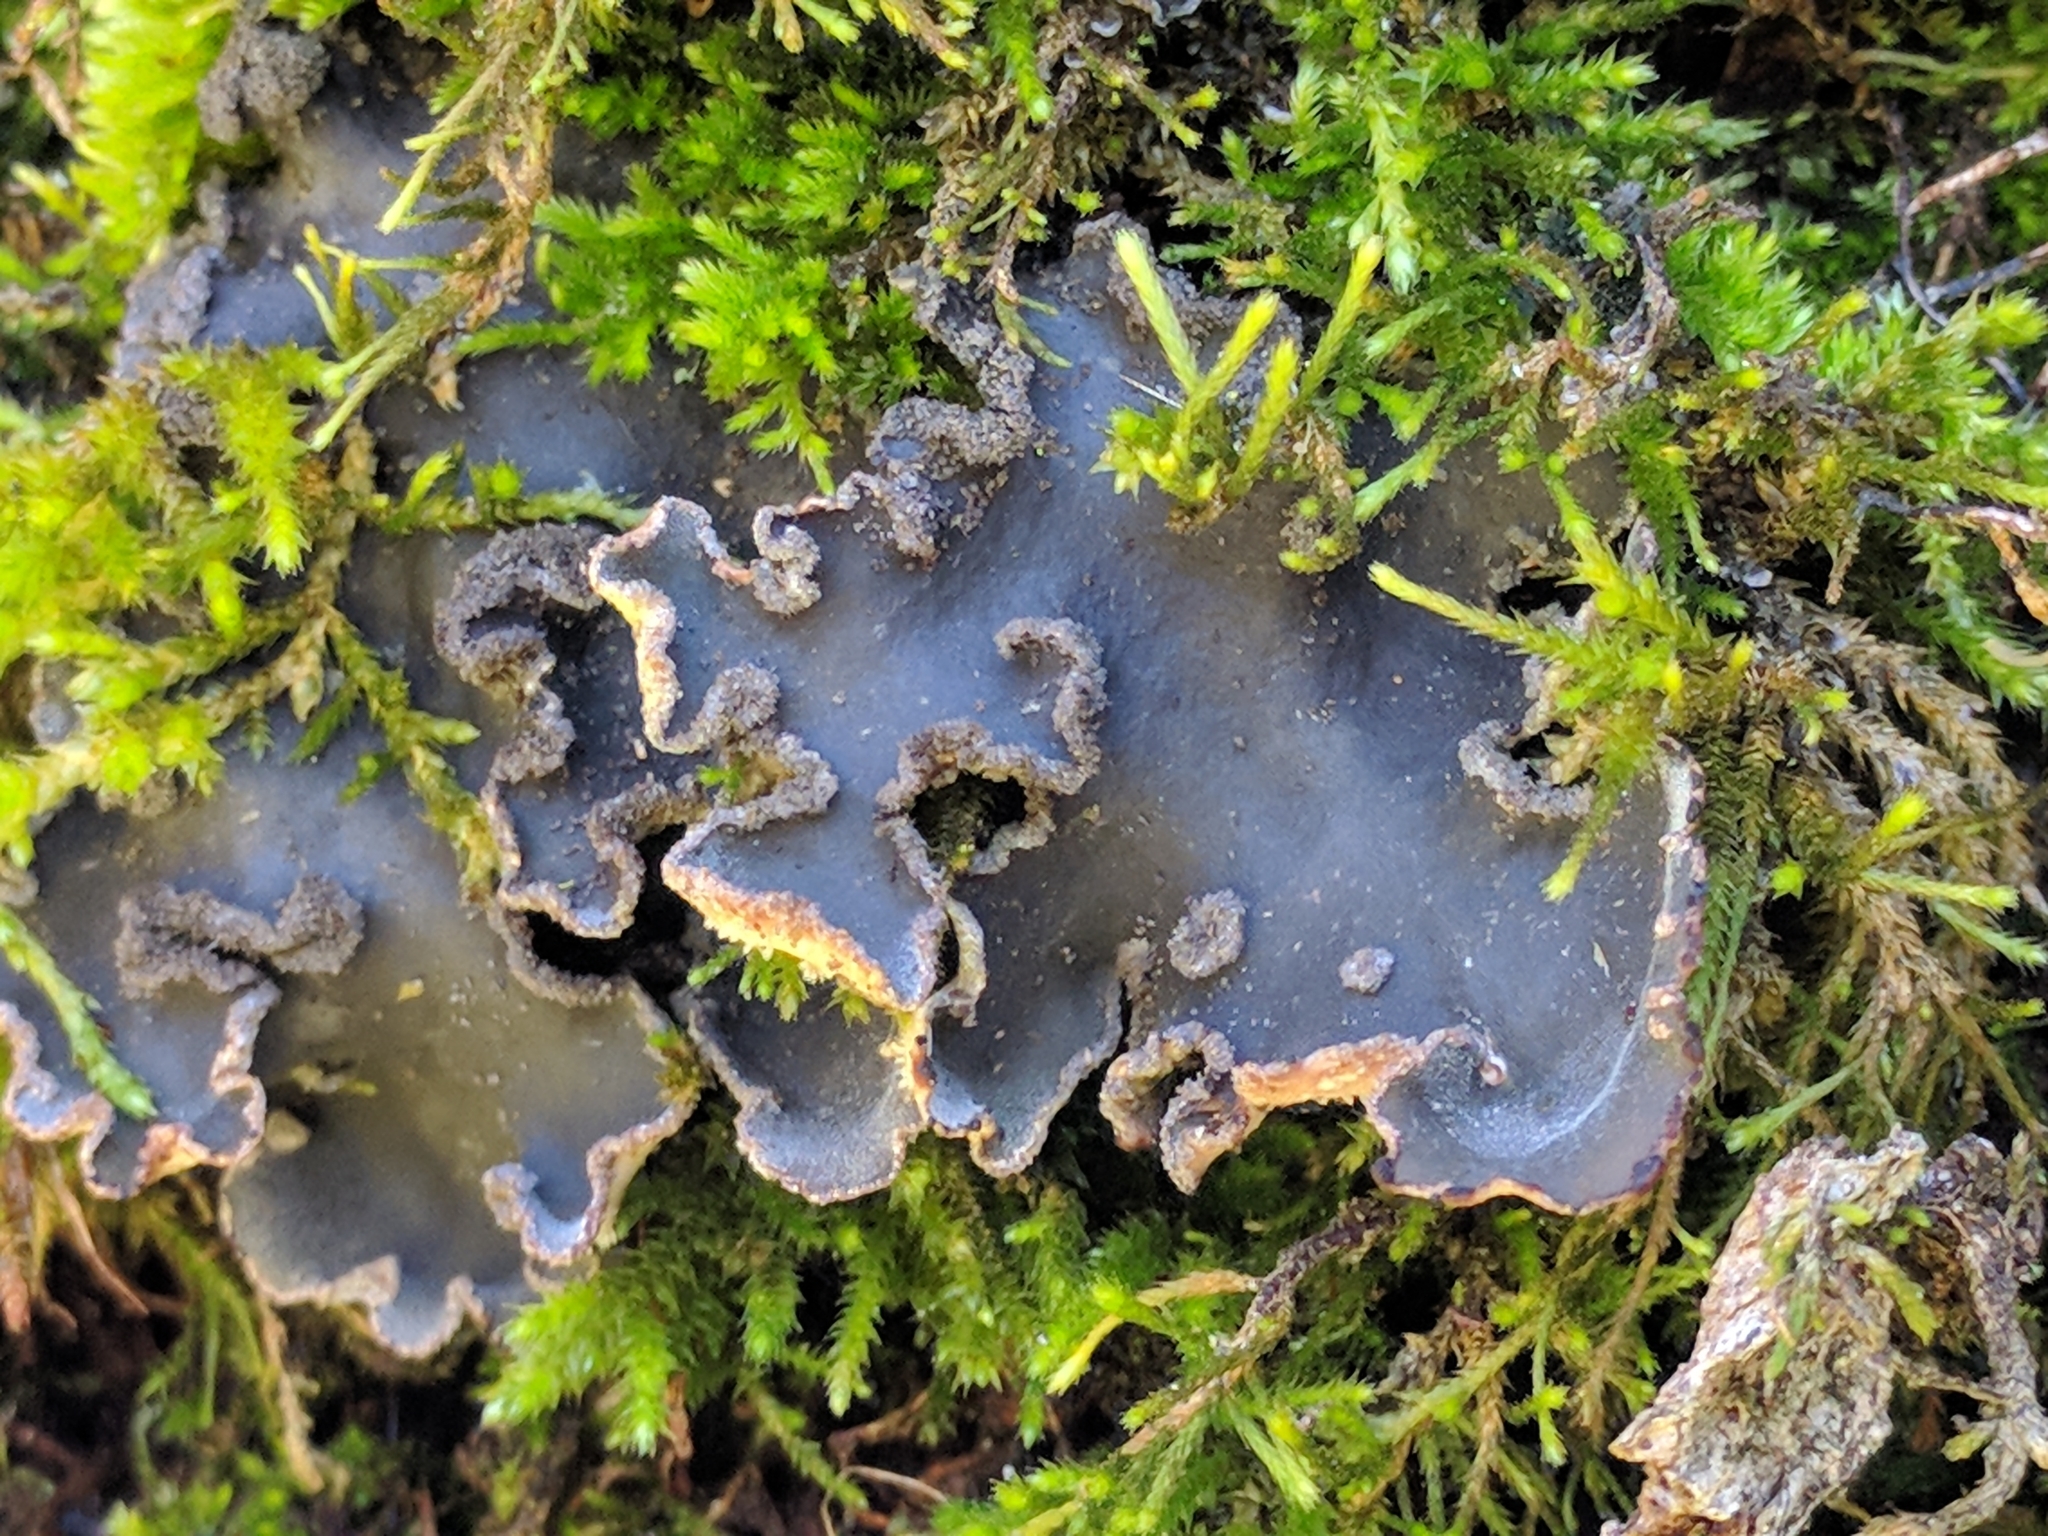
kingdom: Fungi
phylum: Ascomycota
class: Lecanoromycetes
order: Peltigerales
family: Peltigeraceae
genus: Peltigera
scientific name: Peltigera collina
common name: Gritty tree pelt lichen
